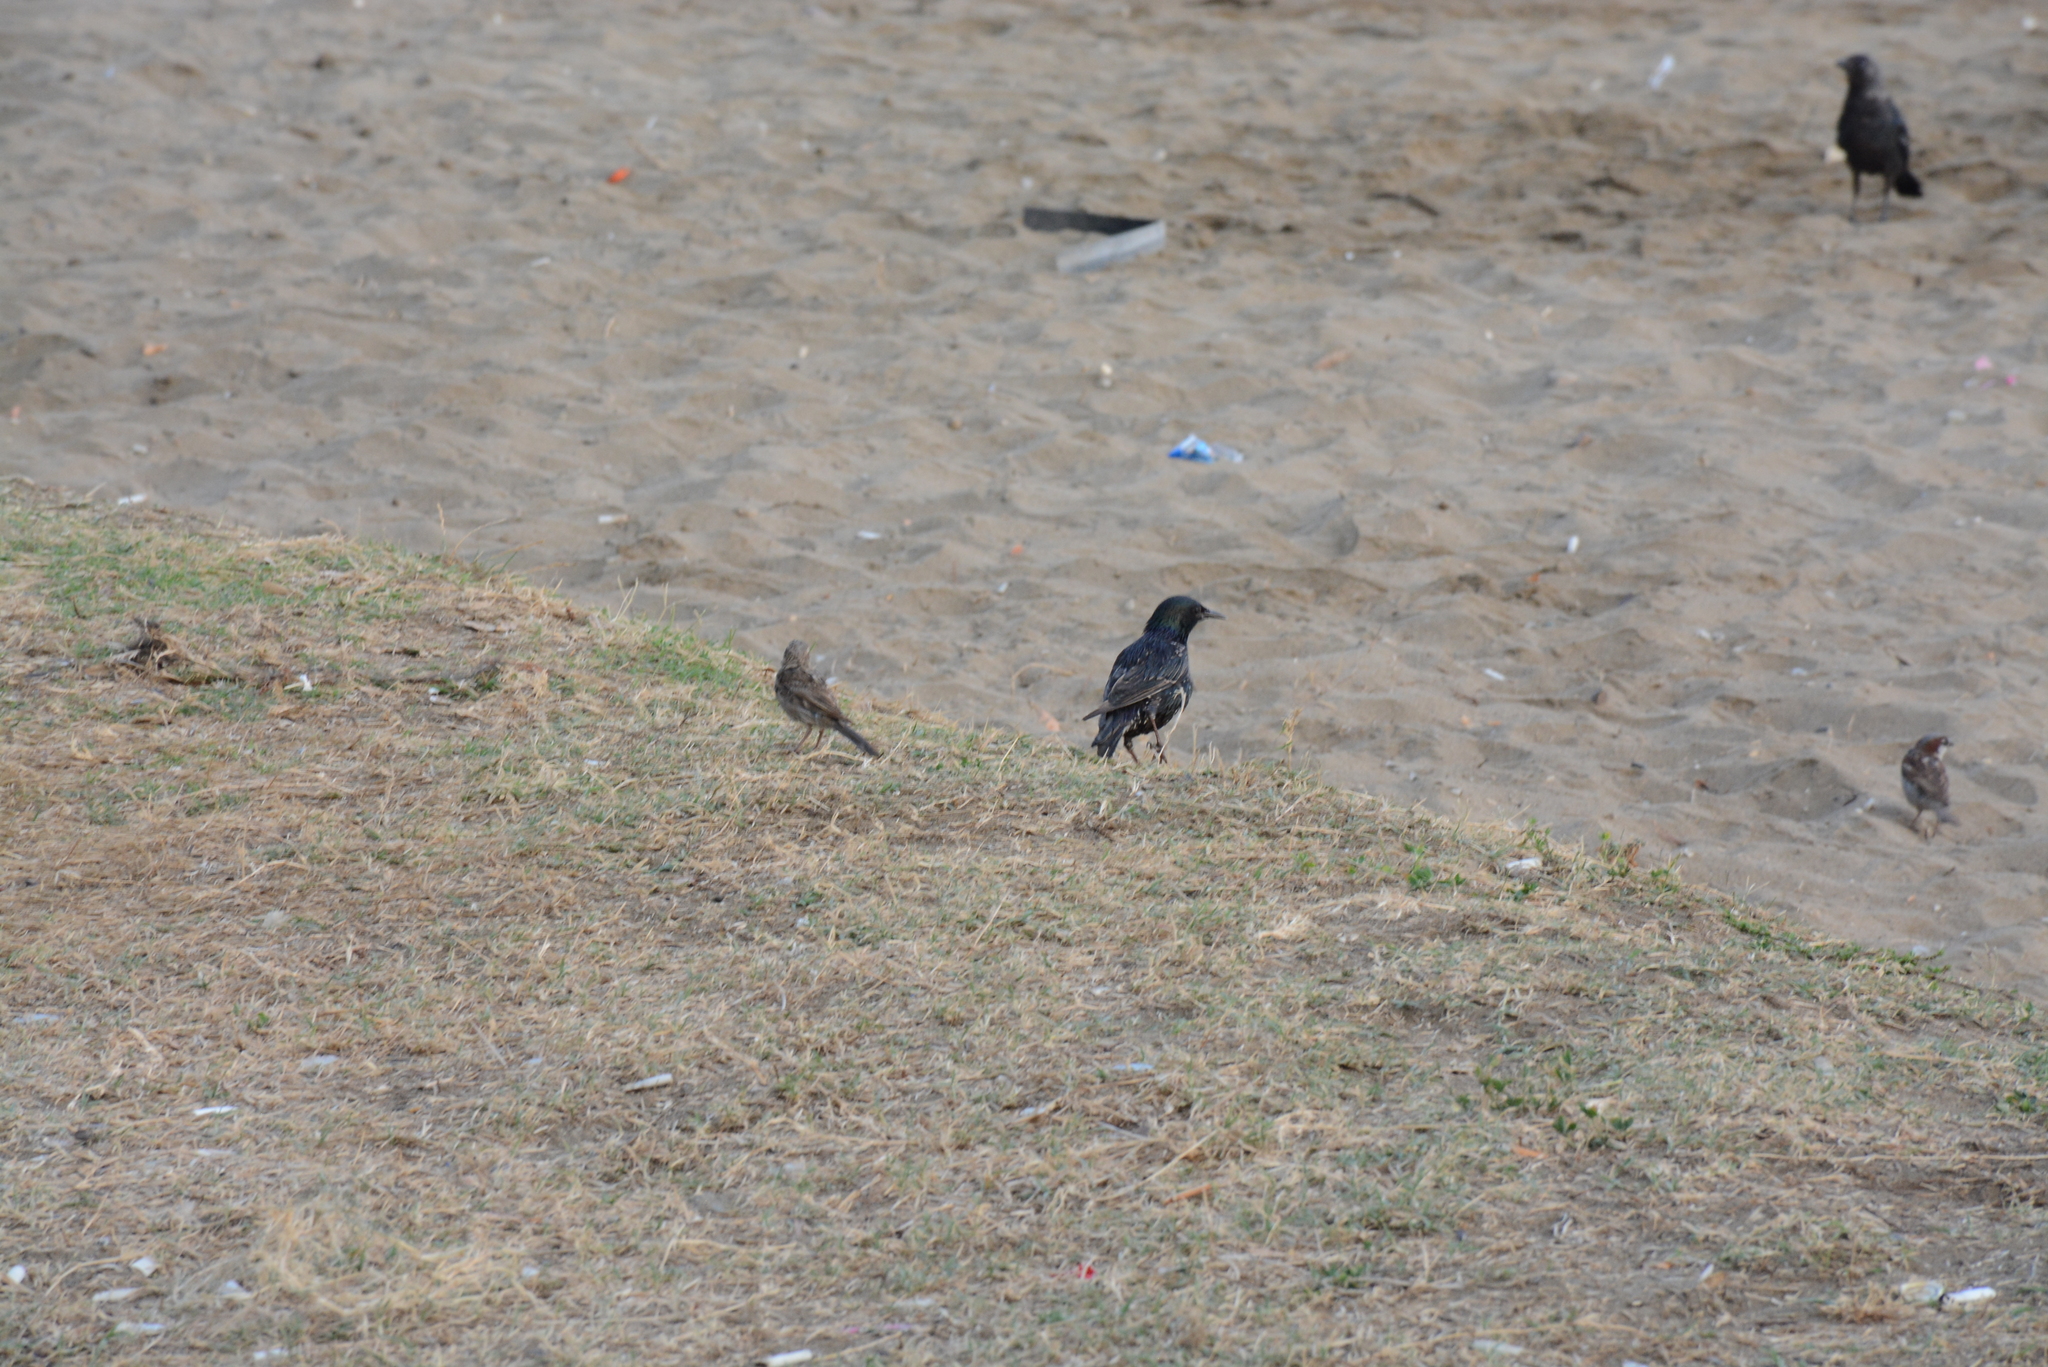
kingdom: Animalia
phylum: Chordata
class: Aves
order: Passeriformes
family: Sturnidae
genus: Sturnus
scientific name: Sturnus vulgaris
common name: Common starling
